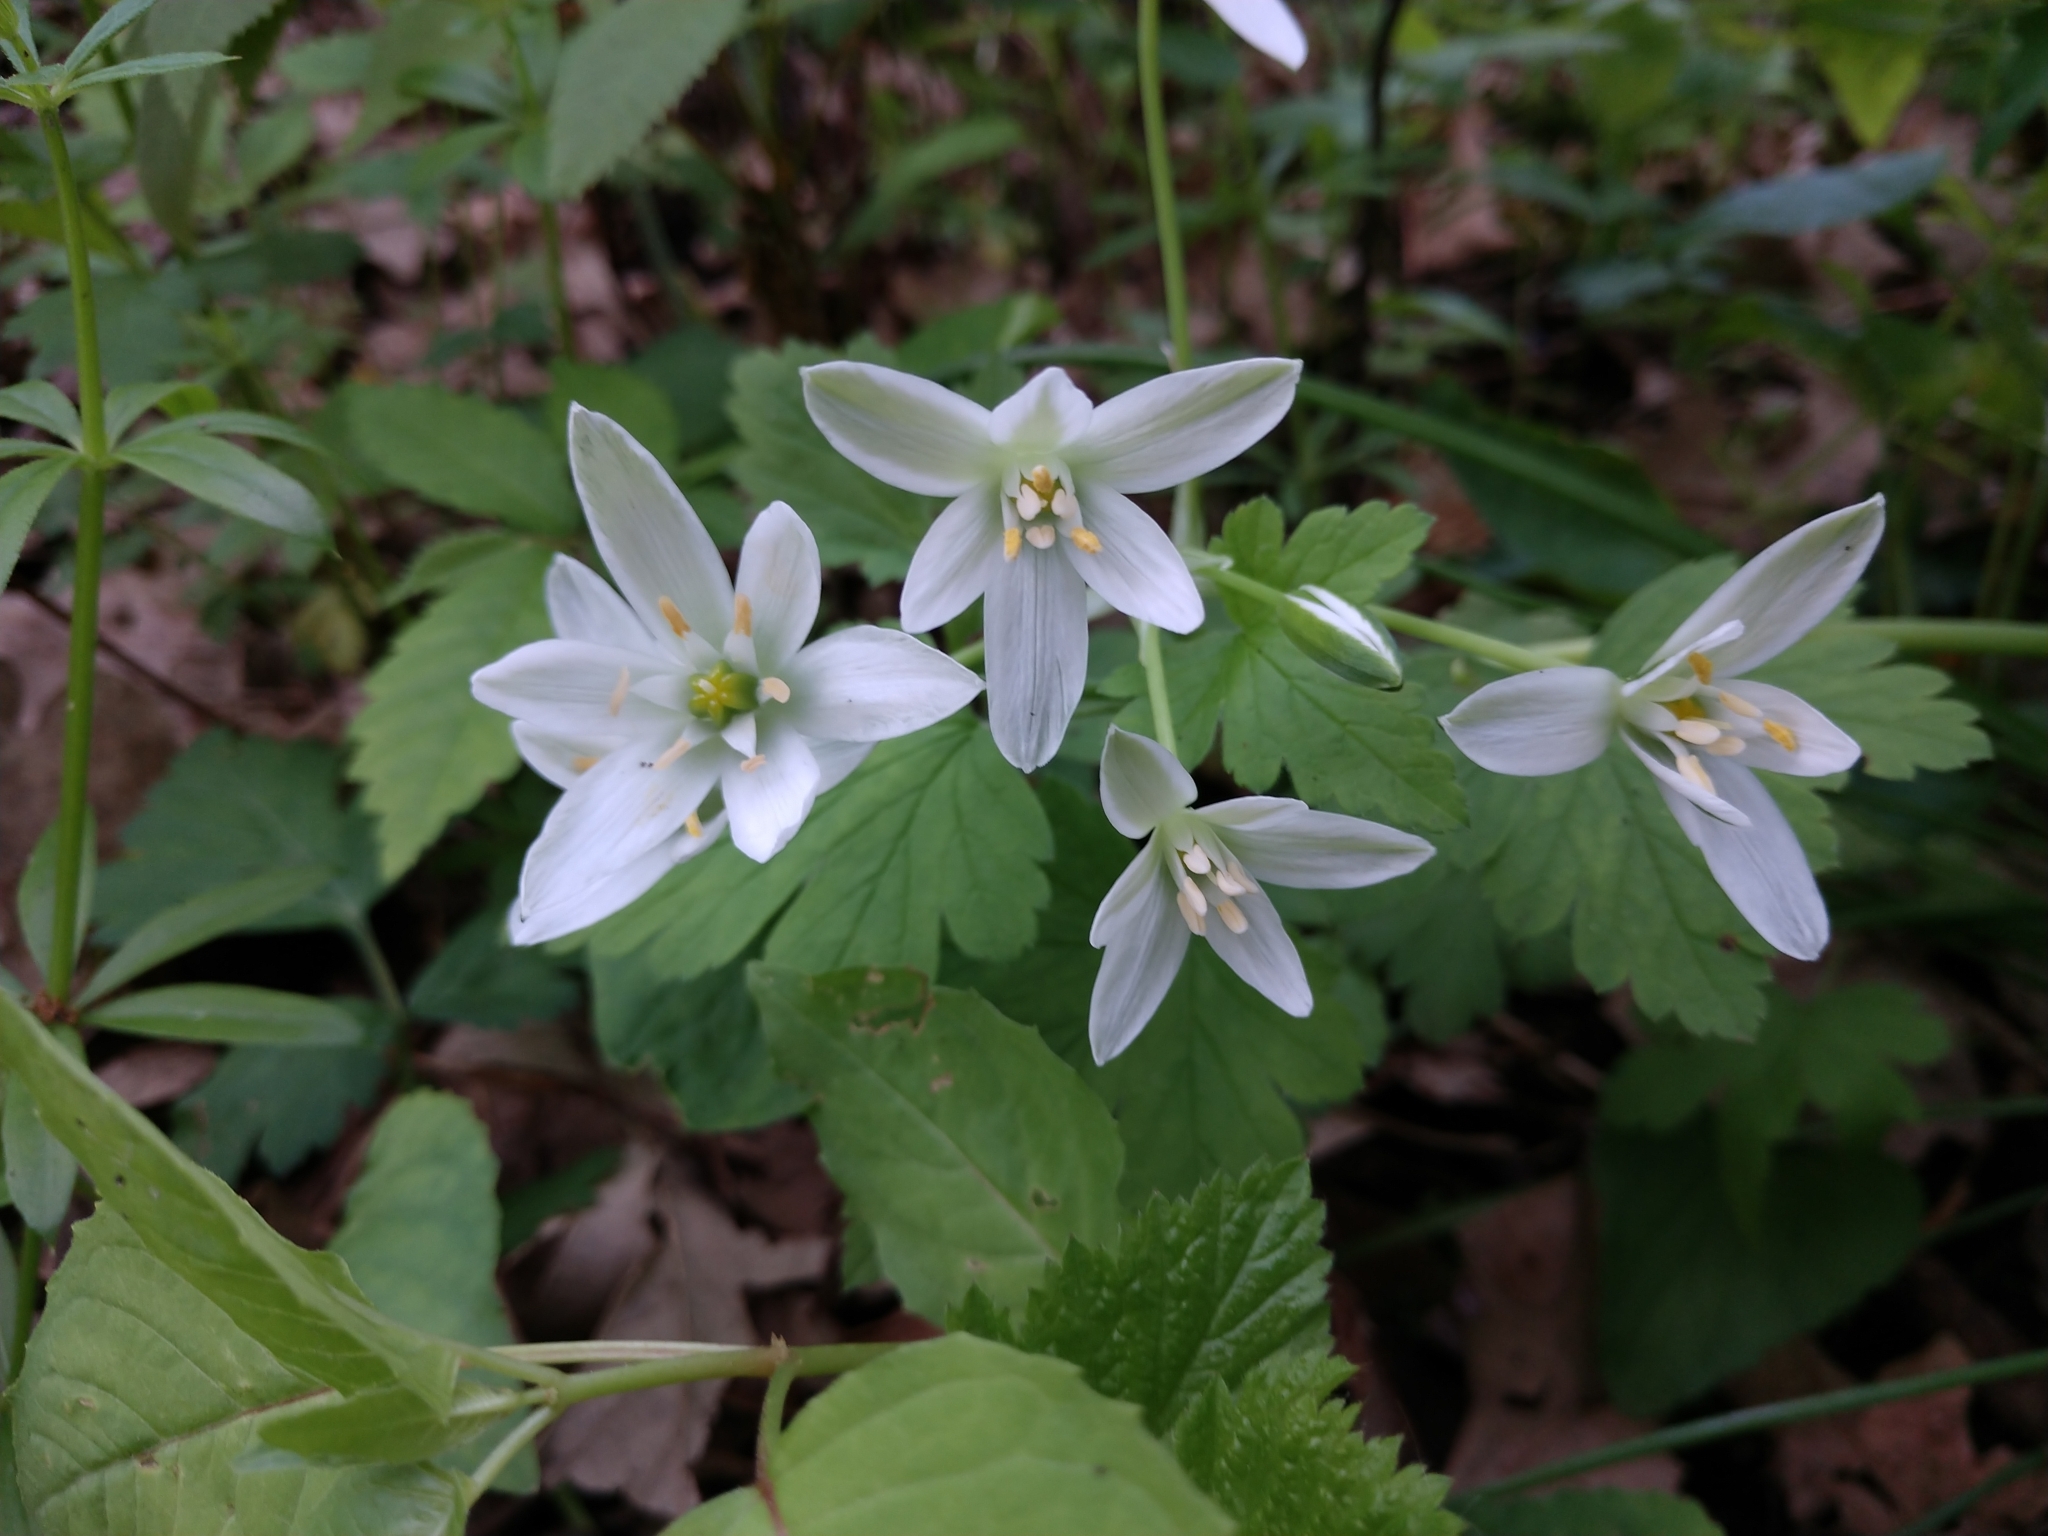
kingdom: Plantae
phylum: Tracheophyta
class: Liliopsida
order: Asparagales
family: Asparagaceae
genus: Ornithogalum
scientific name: Ornithogalum umbellatum
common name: Garden star-of-bethlehem
